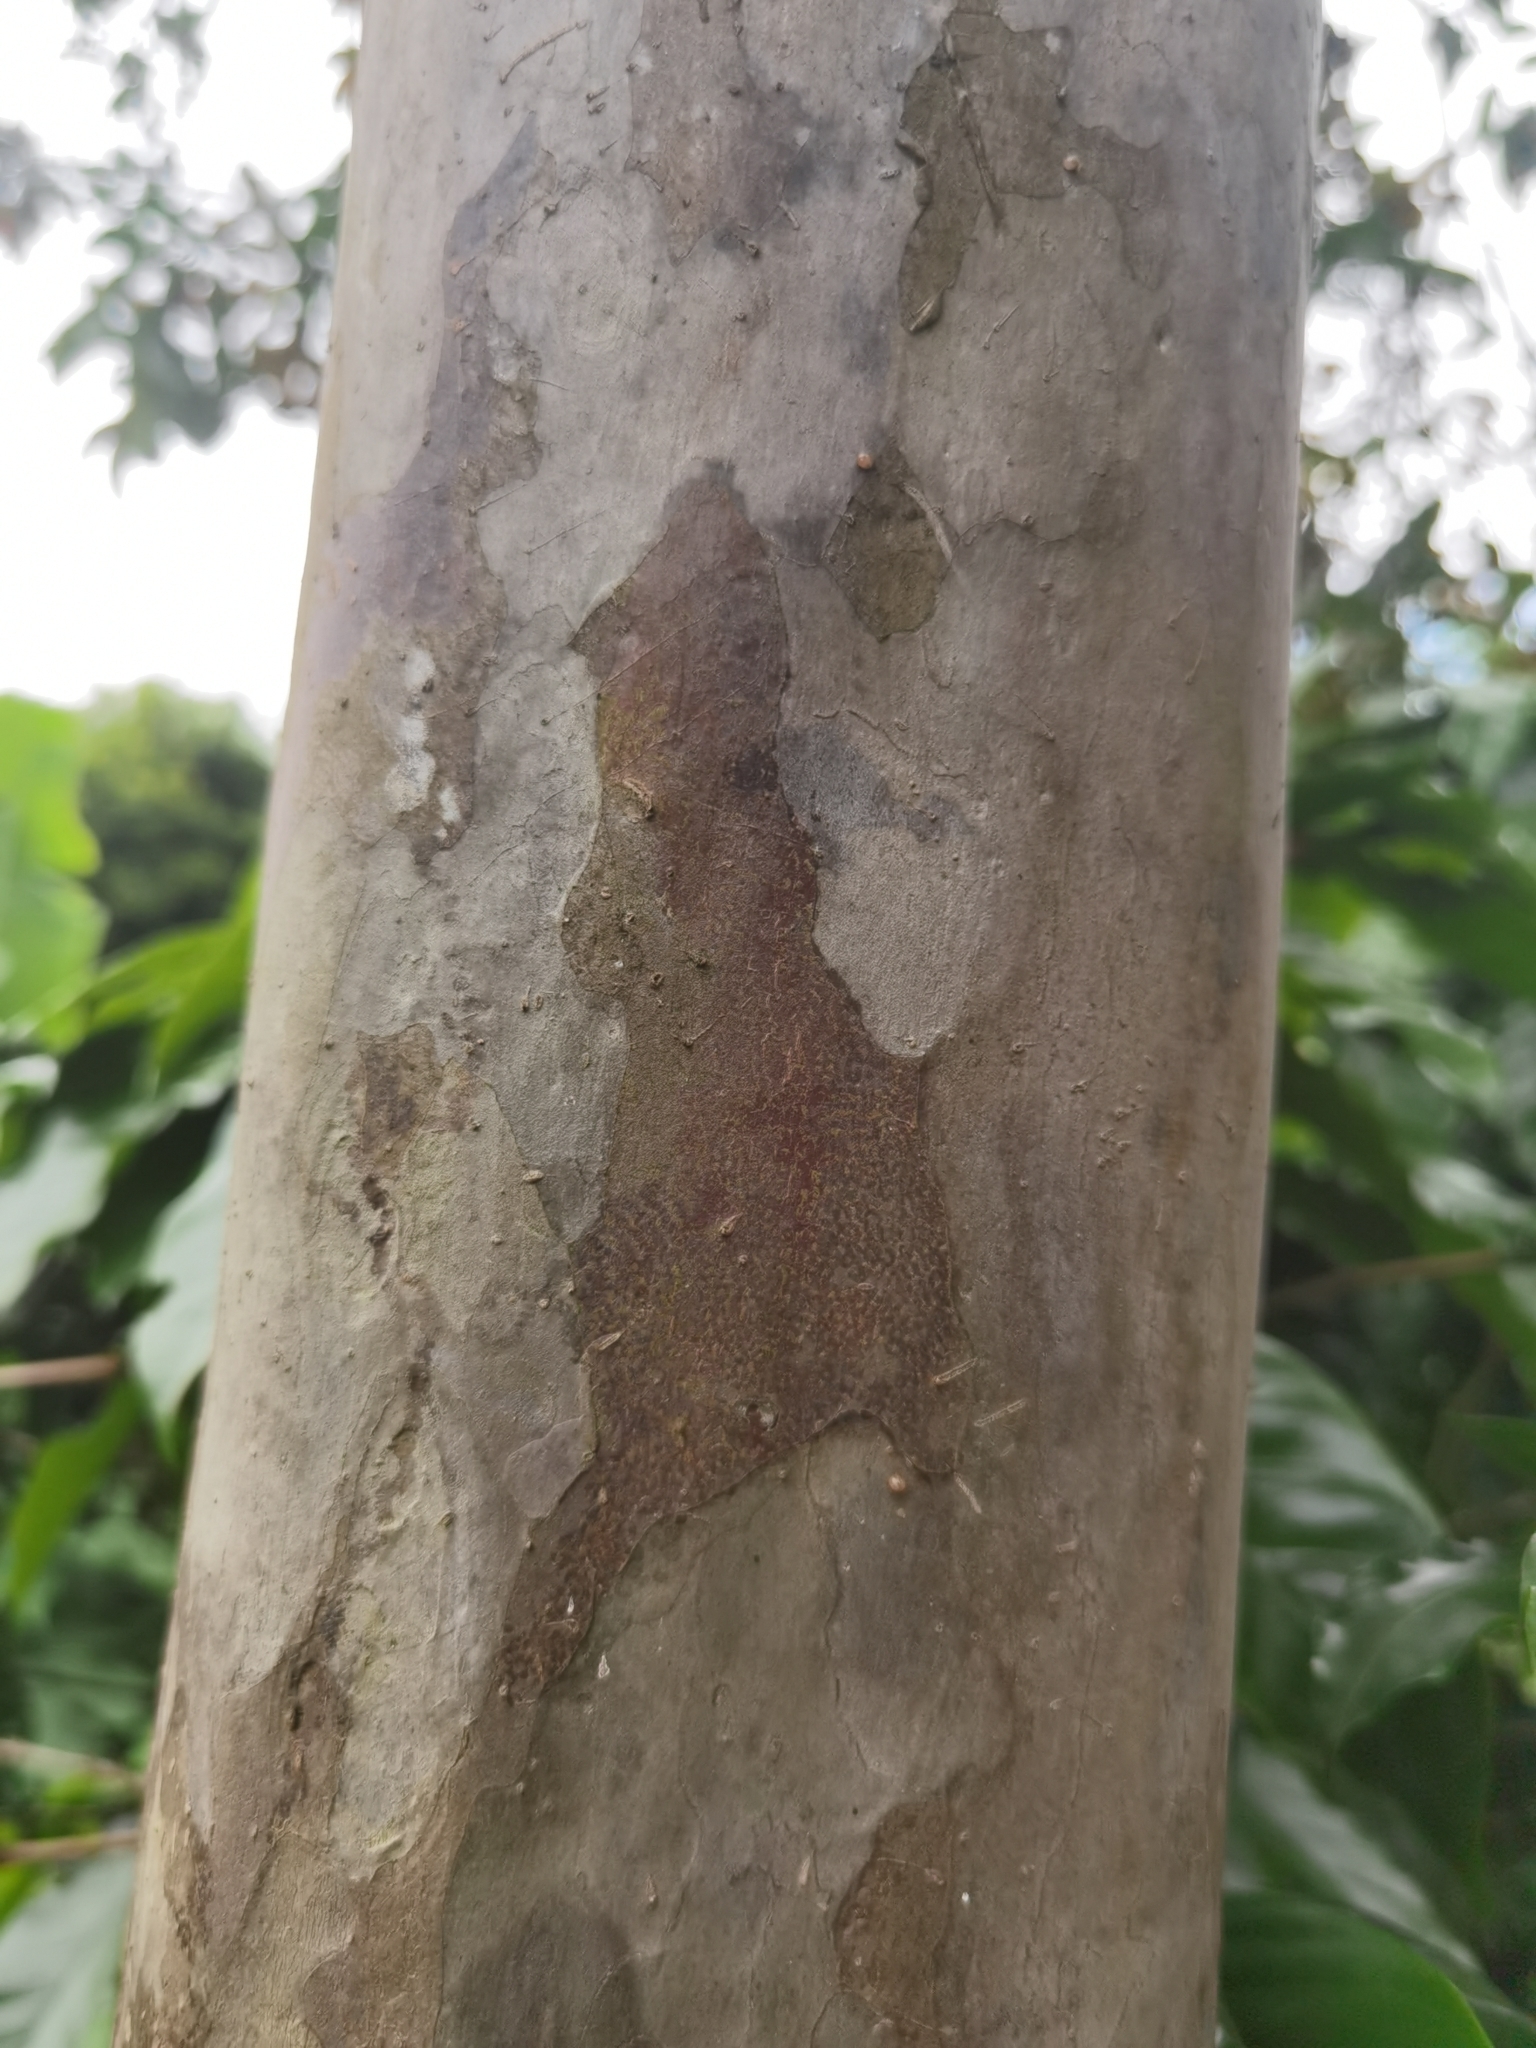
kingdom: Plantae
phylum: Tracheophyta
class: Magnoliopsida
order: Myrtales
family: Myrtaceae
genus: Psidium
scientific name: Psidium friedrichsthalianum
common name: Costa rican guava
